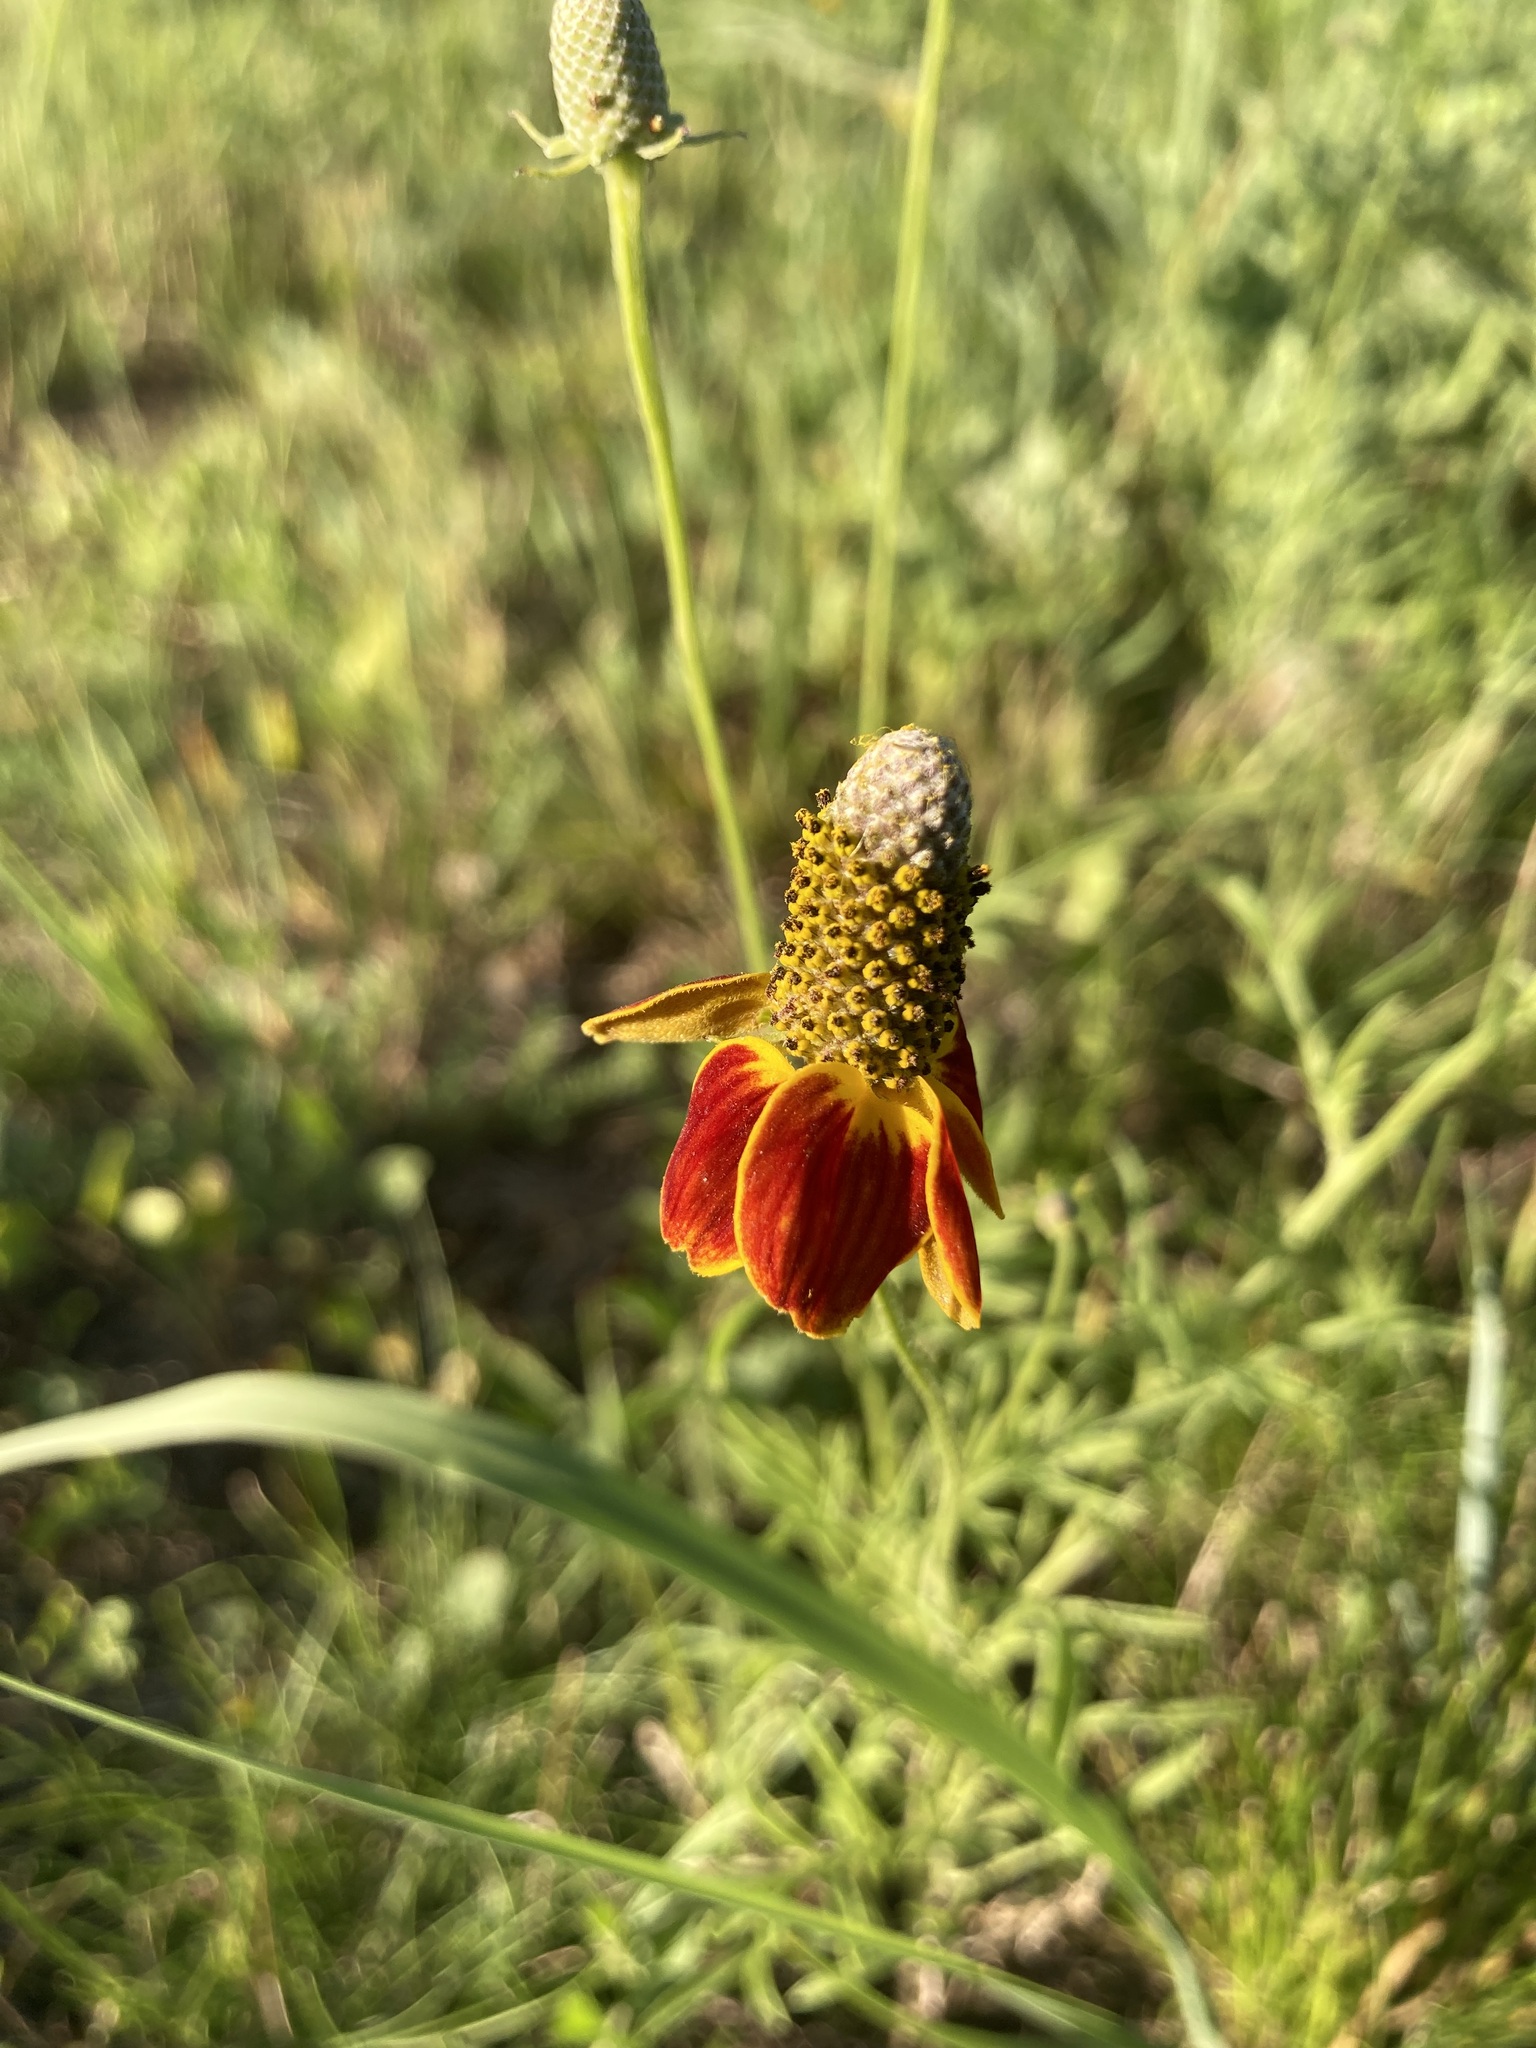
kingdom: Plantae
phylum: Tracheophyta
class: Magnoliopsida
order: Asterales
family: Asteraceae
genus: Ratibida
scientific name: Ratibida columnifera
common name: Prairie coneflower
